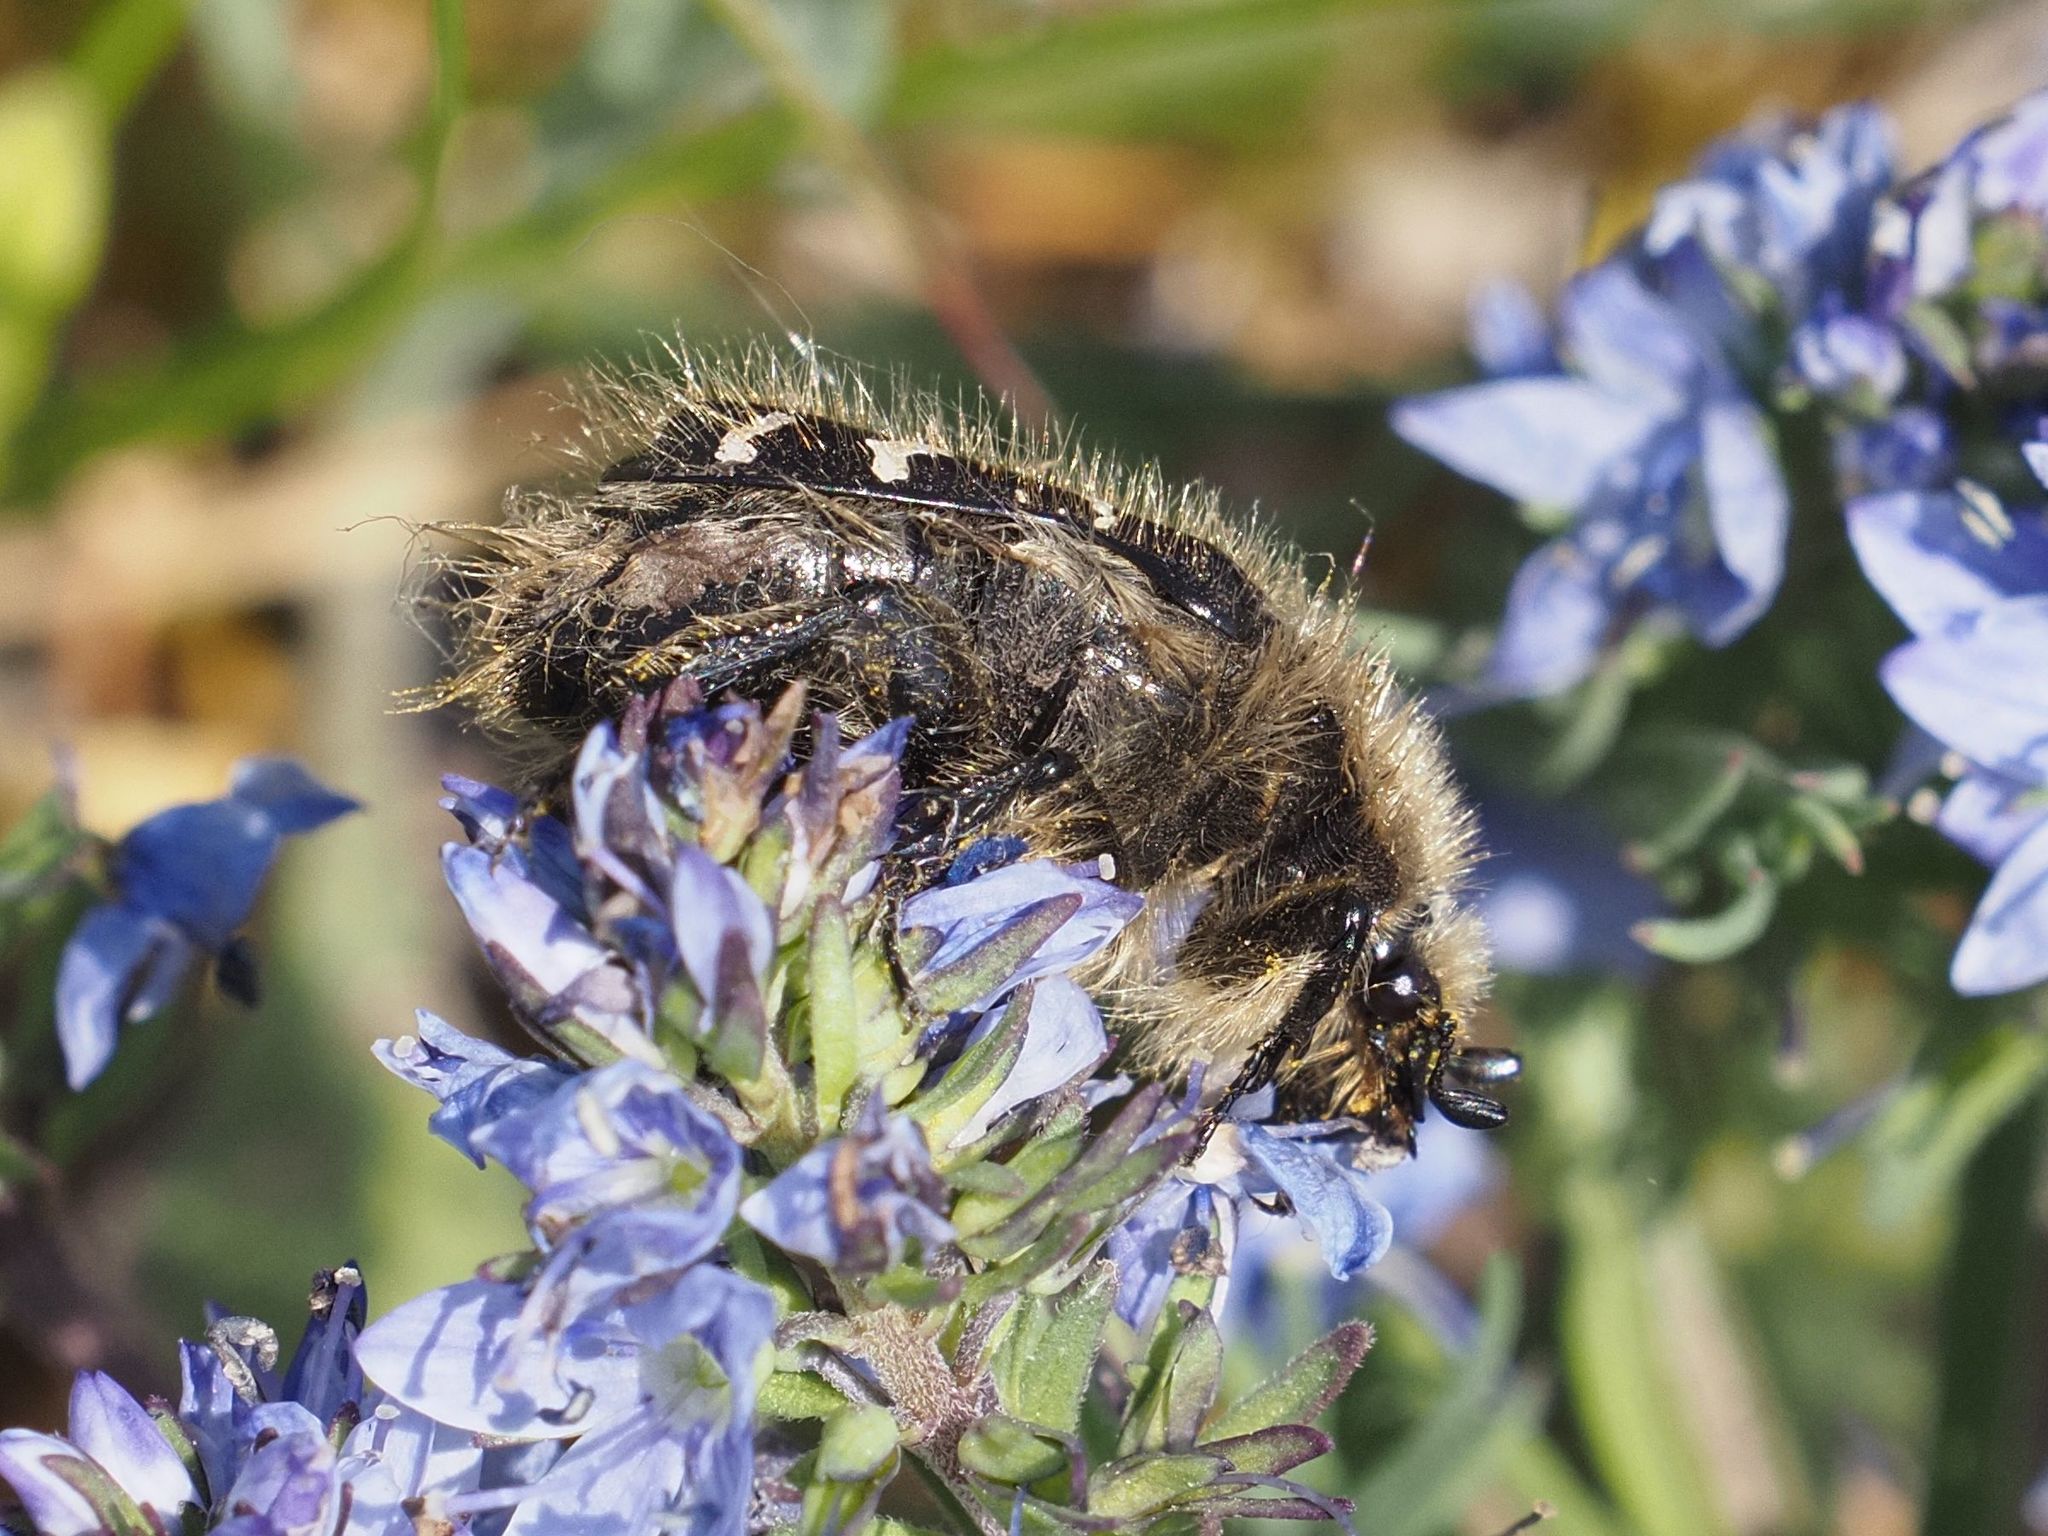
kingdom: Animalia
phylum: Arthropoda
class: Insecta
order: Coleoptera
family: Scarabaeidae
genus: Tropinota
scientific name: Tropinota hirta
